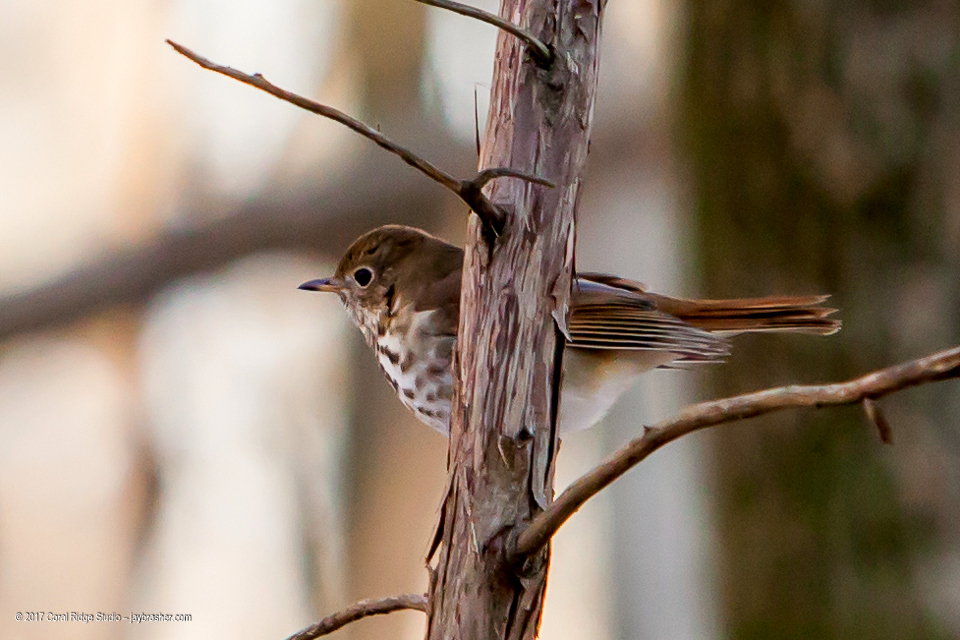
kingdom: Animalia
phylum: Chordata
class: Aves
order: Passeriformes
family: Turdidae
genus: Catharus
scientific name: Catharus guttatus
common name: Hermit thrush
